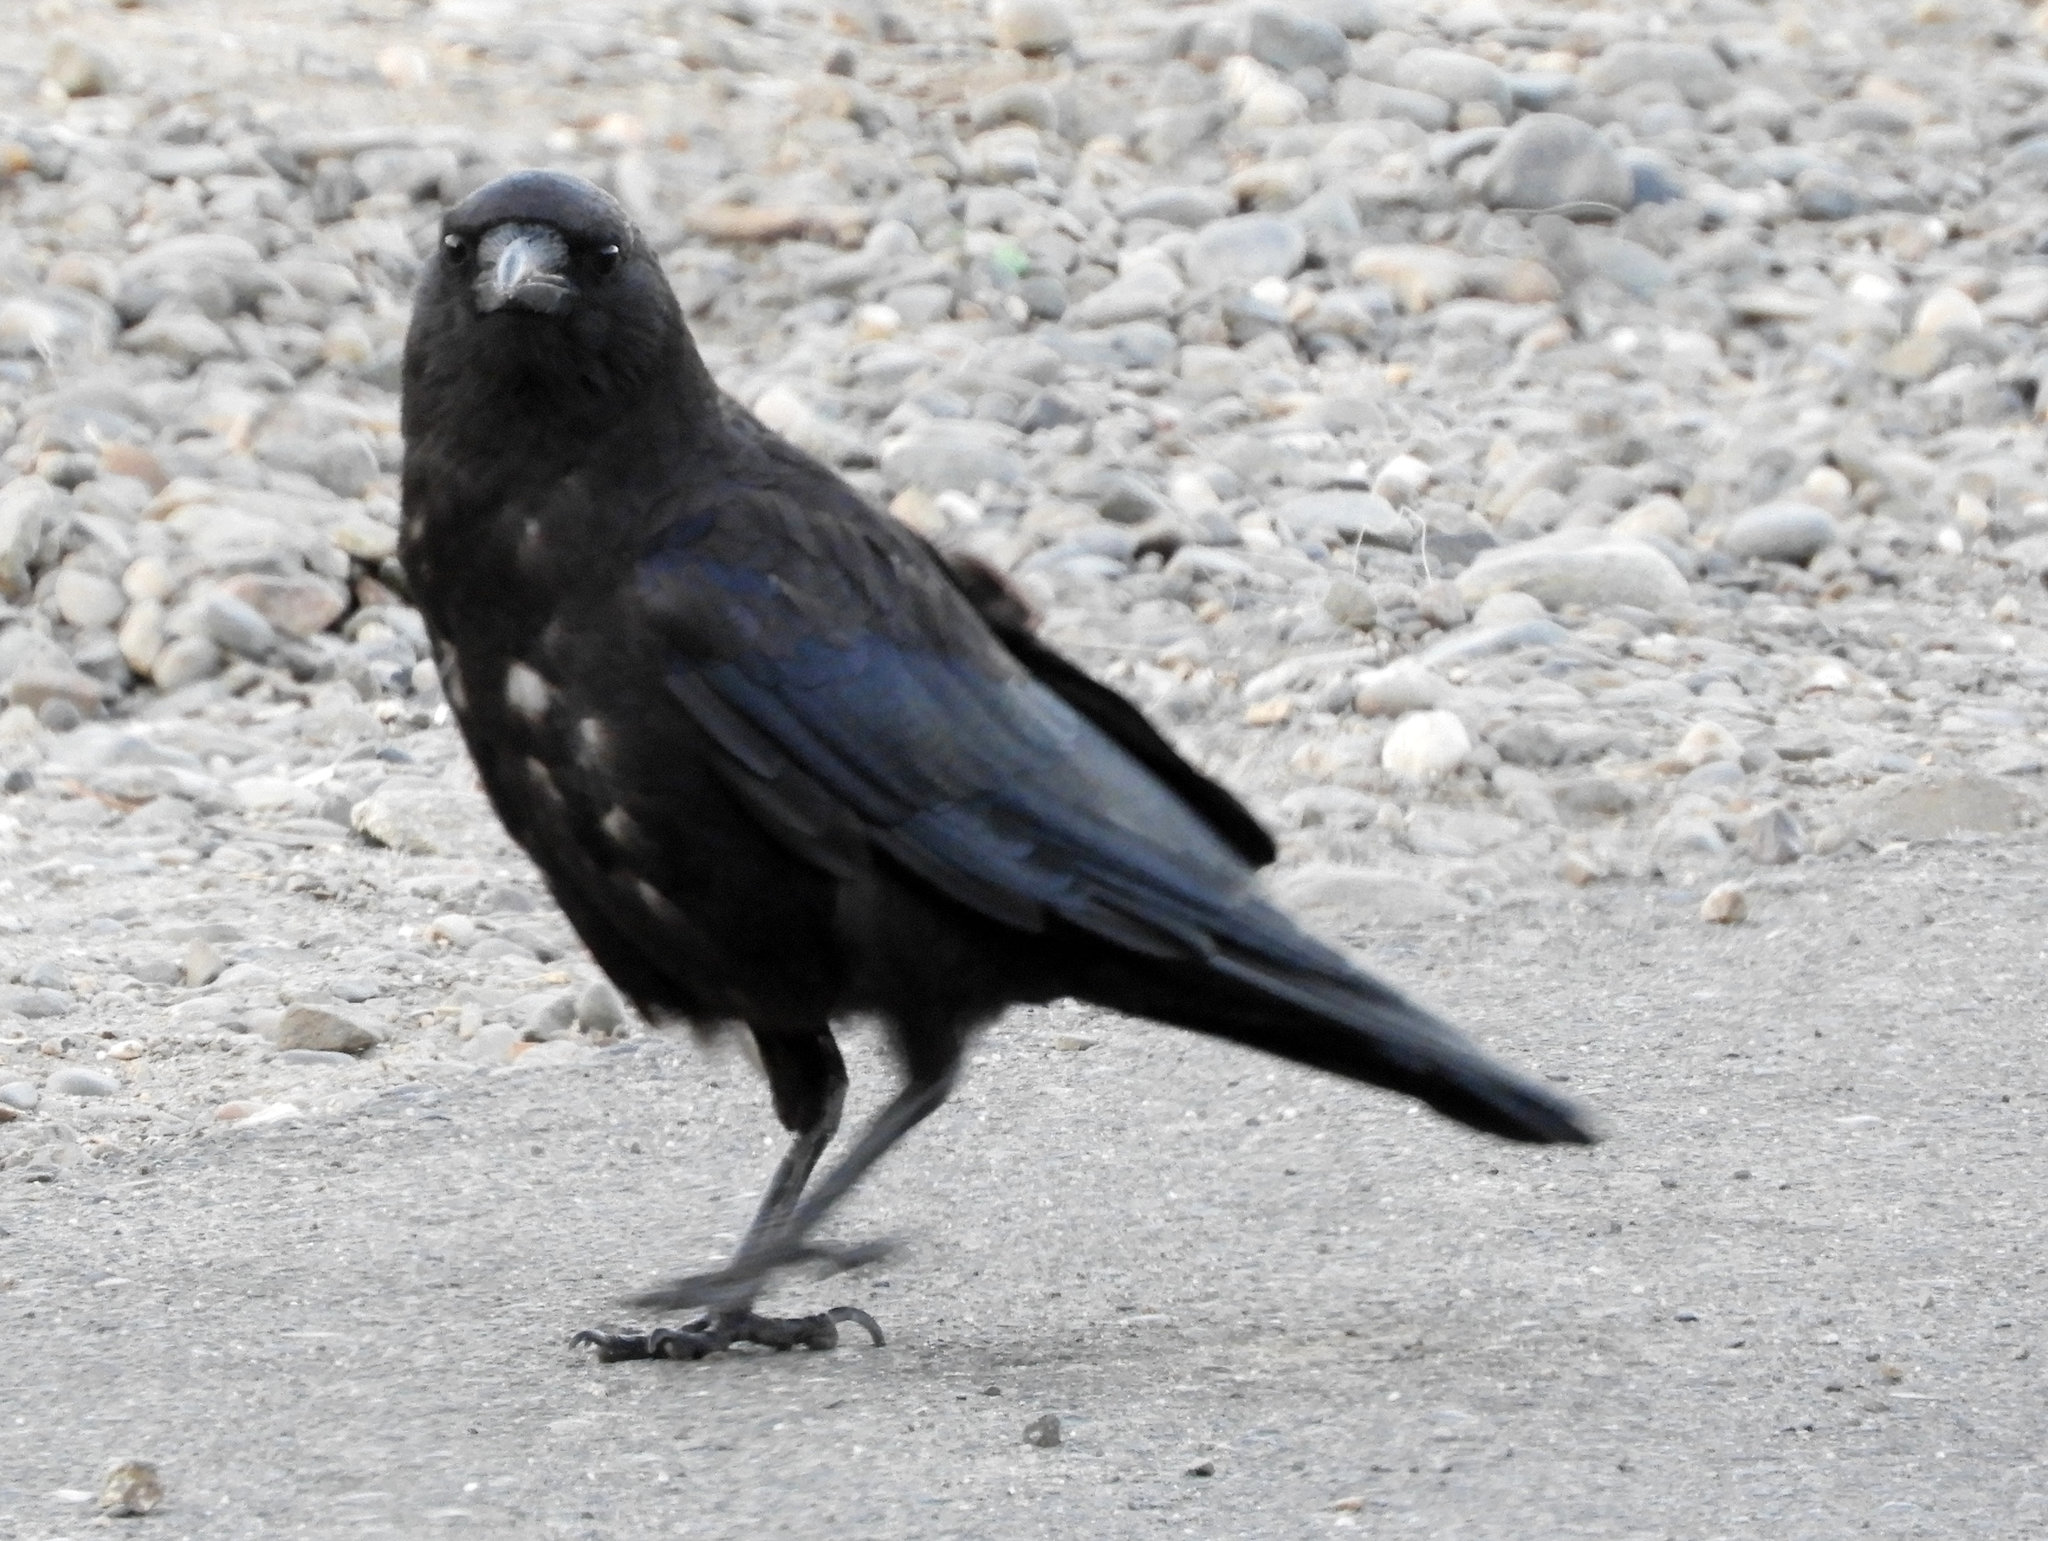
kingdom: Animalia
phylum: Chordata
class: Aves
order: Passeriformes
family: Corvidae
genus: Corvus
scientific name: Corvus brachyrhynchos
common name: American crow
